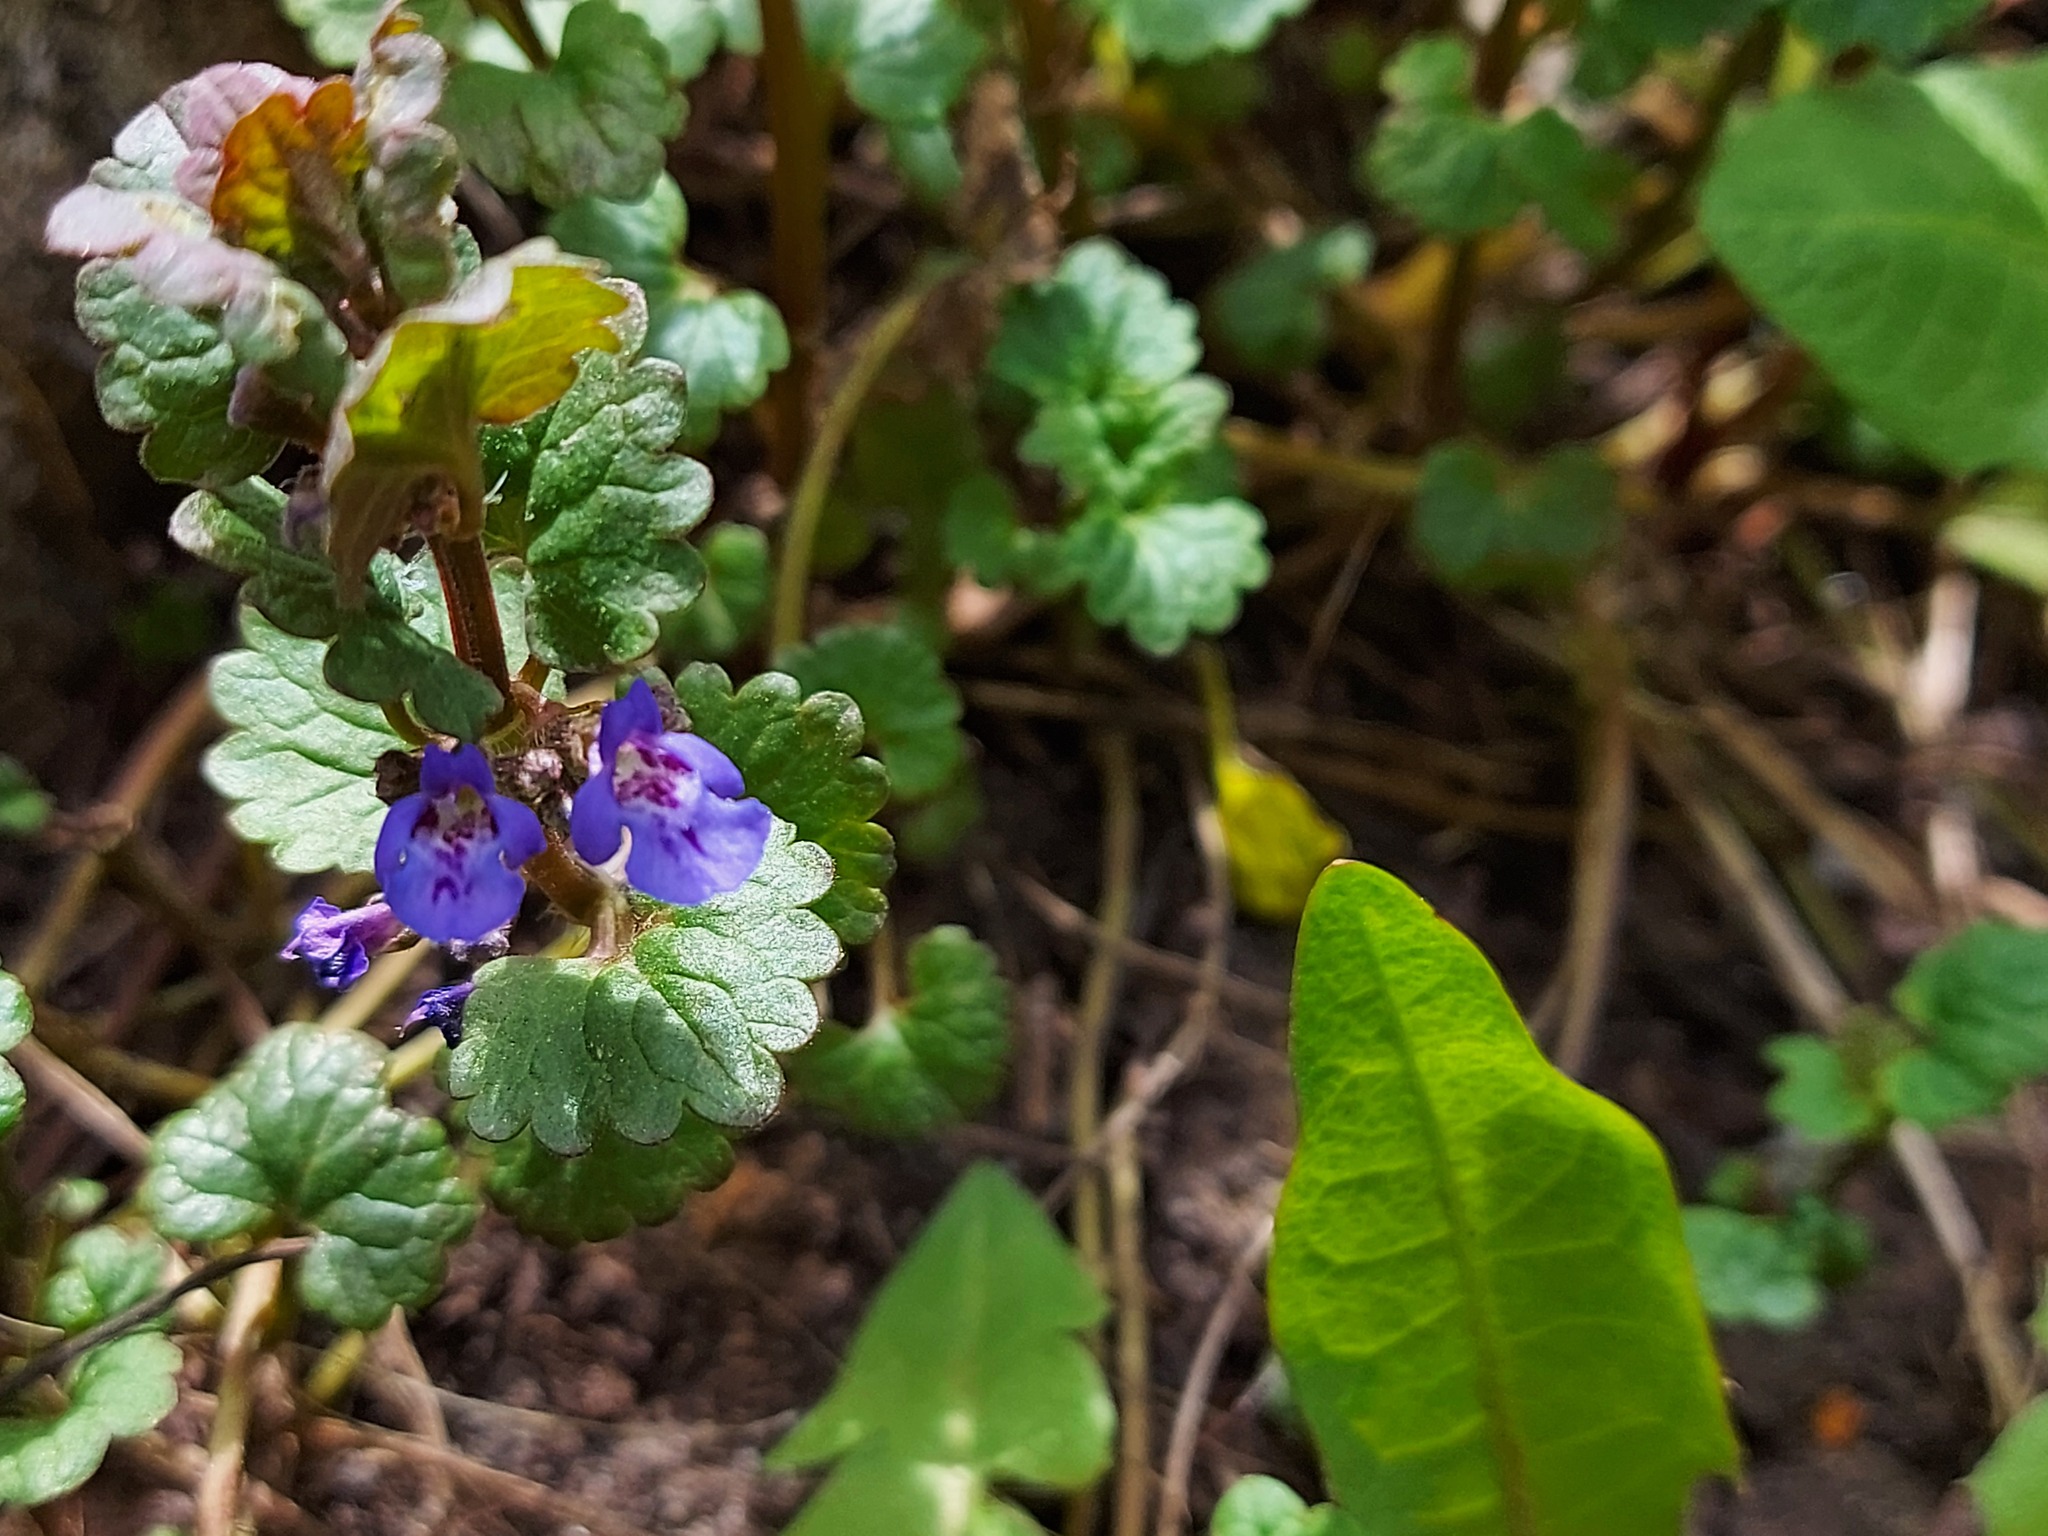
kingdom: Plantae
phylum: Tracheophyta
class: Magnoliopsida
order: Lamiales
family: Lamiaceae
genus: Glechoma
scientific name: Glechoma hederacea
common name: Ground ivy
